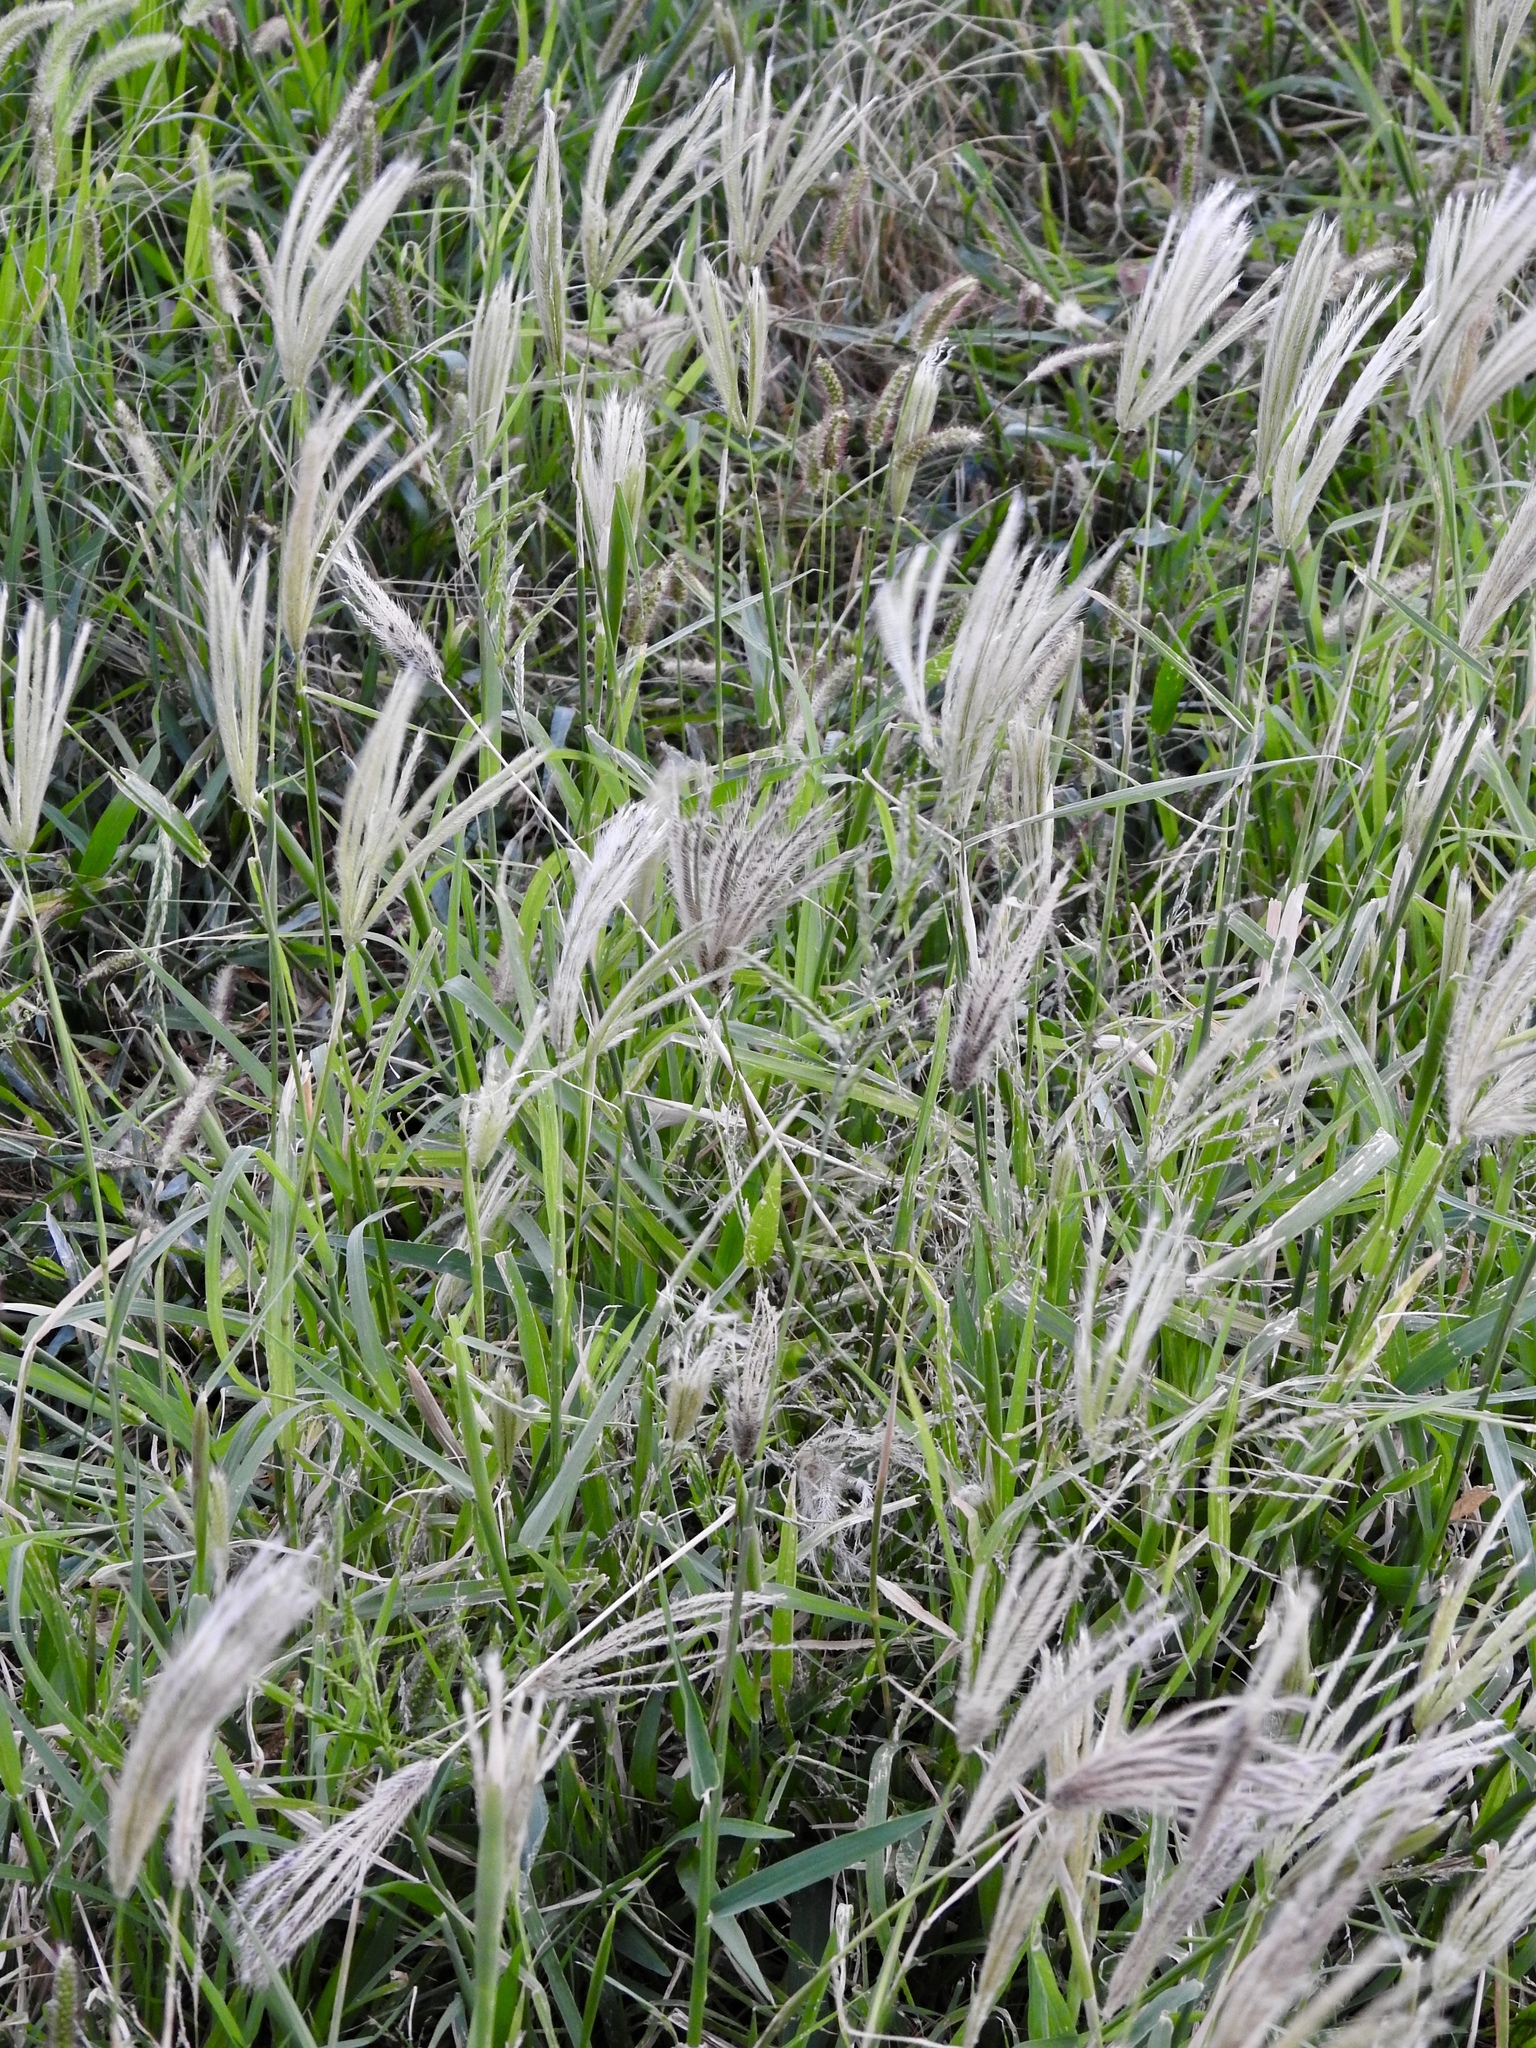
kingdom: Plantae
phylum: Tracheophyta
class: Liliopsida
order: Poales
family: Poaceae
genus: Chloris
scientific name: Chloris virgata
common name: Feathery rhodes-grass
